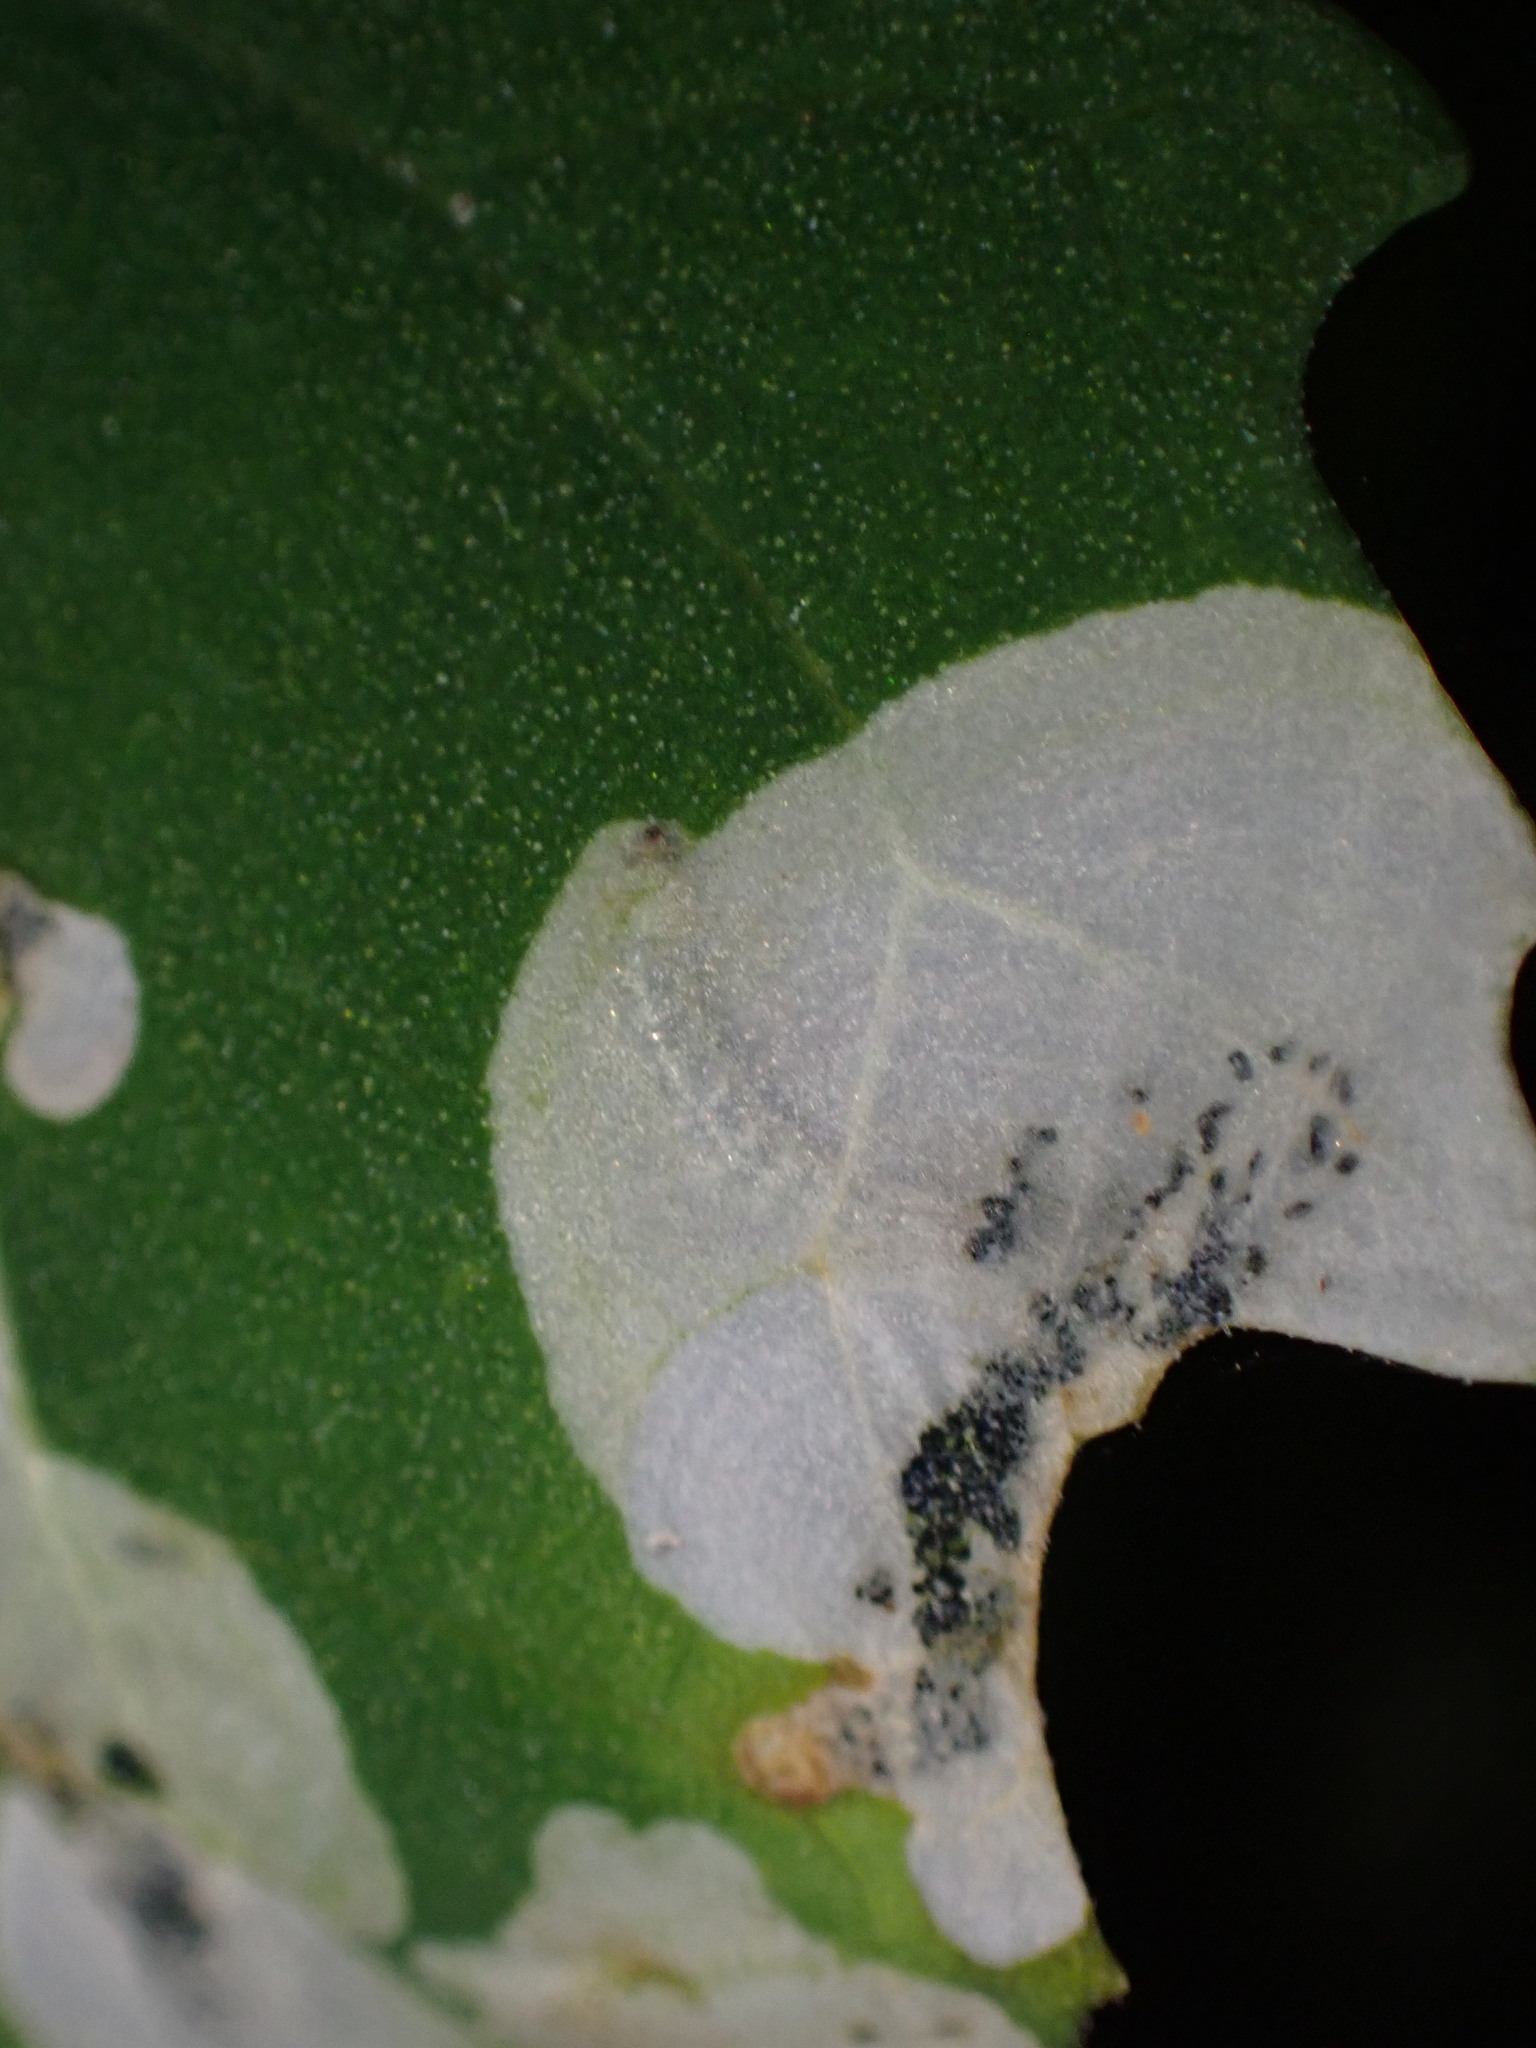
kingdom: Animalia
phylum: Arthropoda
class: Insecta
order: Lepidoptera
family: Gelechiidae
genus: Chrysoesthia
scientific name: Chrysoesthia sexguttella
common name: Moth
